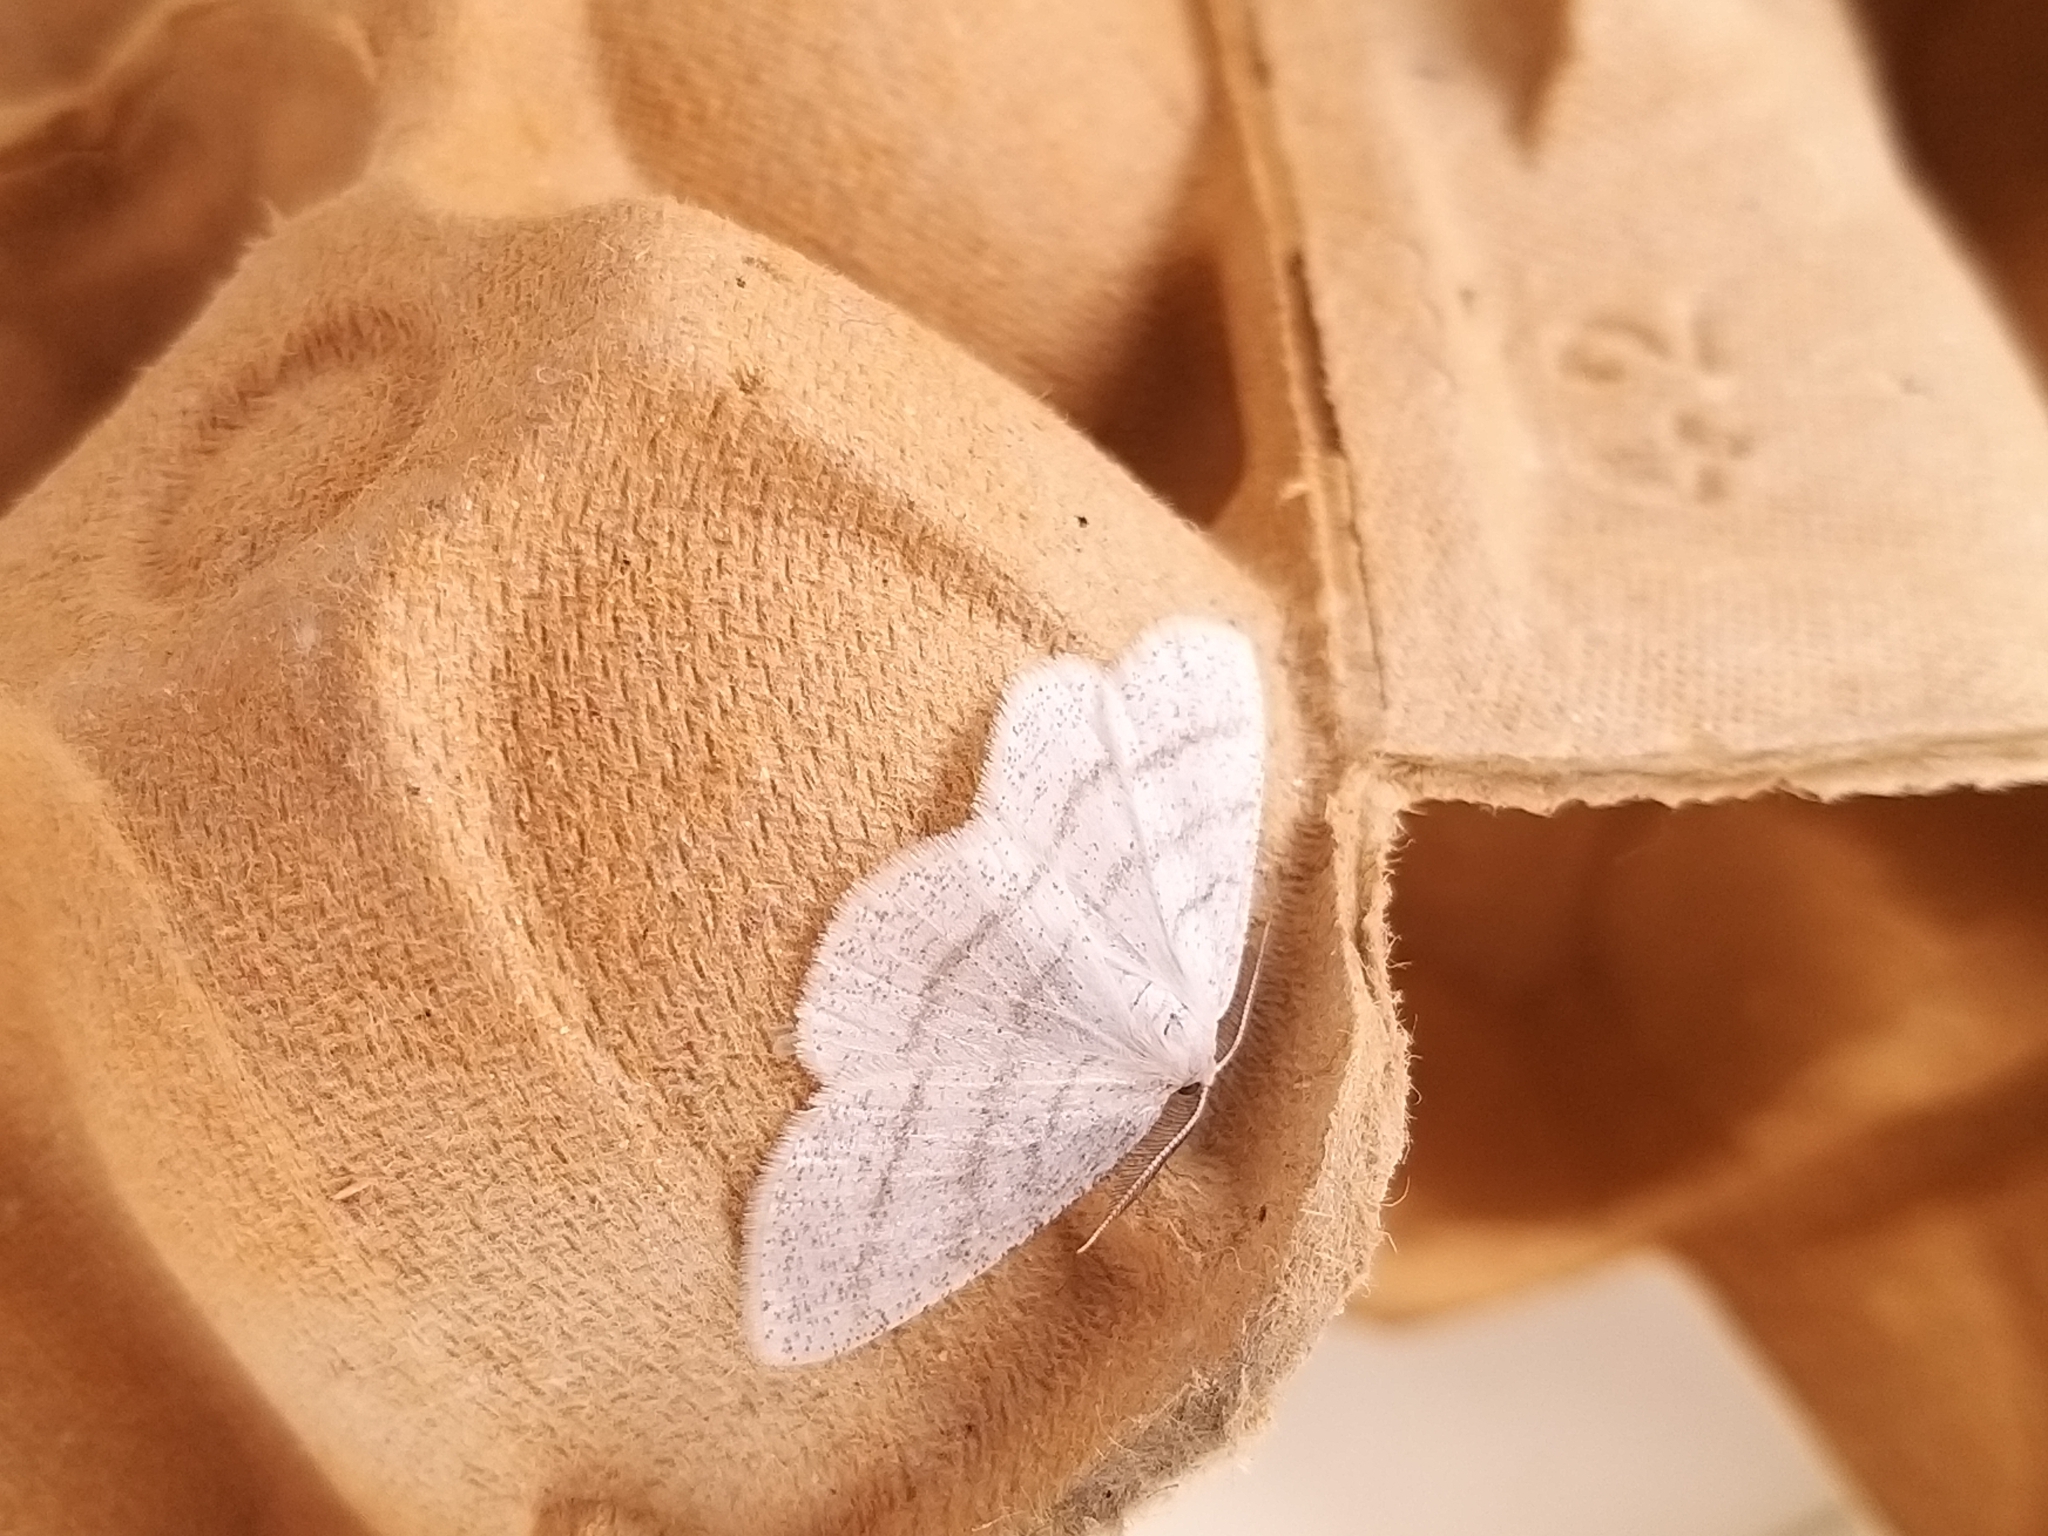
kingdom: Animalia
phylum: Arthropoda
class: Insecta
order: Lepidoptera
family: Geometridae
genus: Cabera
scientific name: Cabera pusaria
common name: Common white wave
